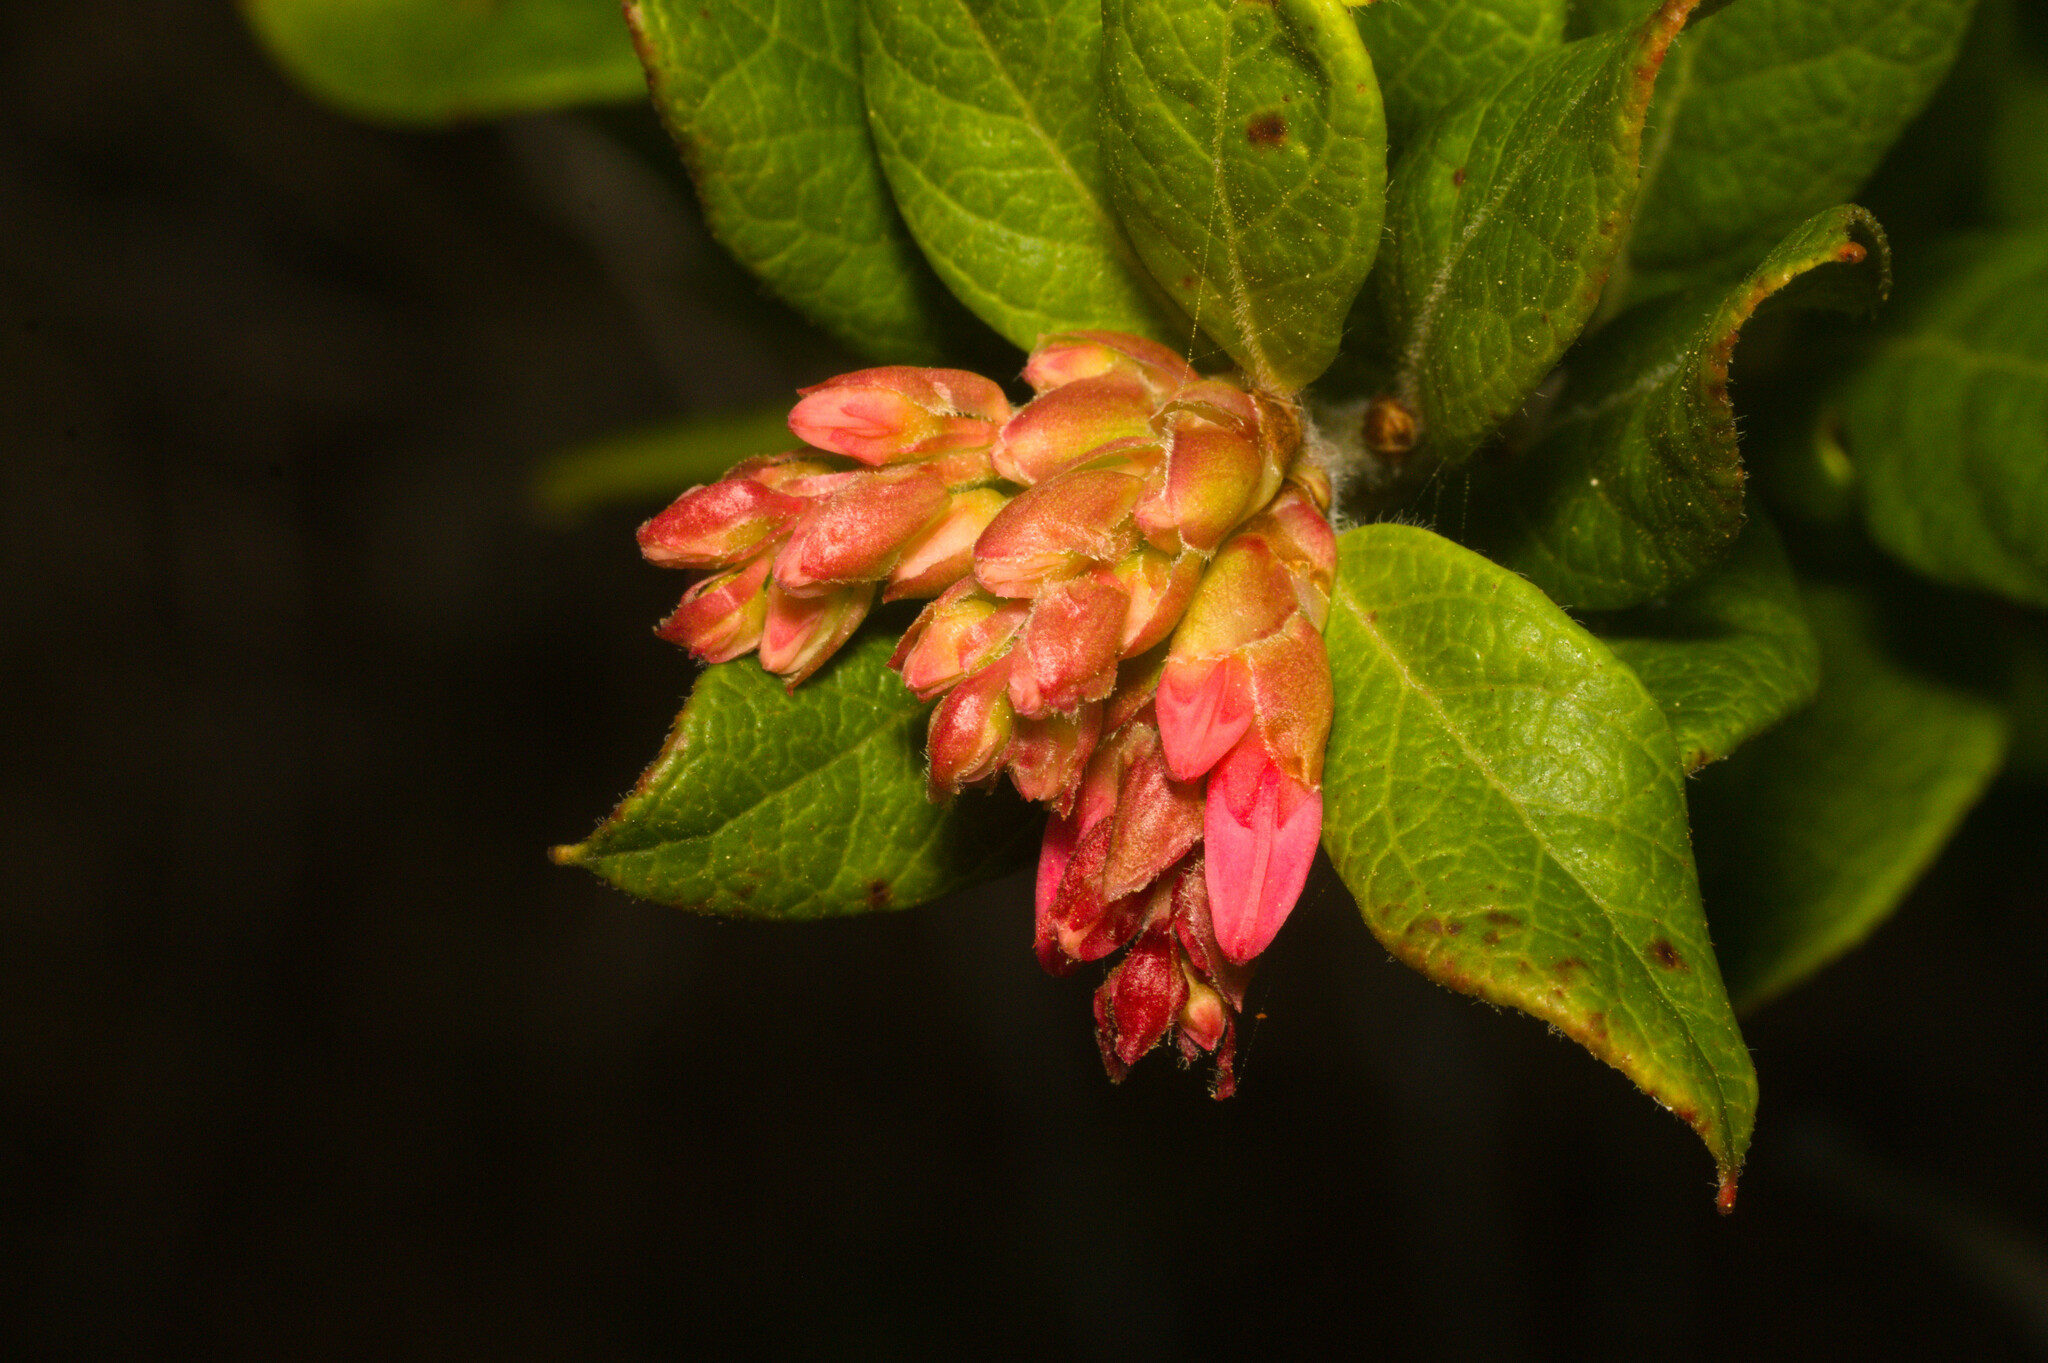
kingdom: Plantae
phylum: Tracheophyta
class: Magnoliopsida
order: Ericales
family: Ericaceae
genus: Gaylussacia
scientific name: Gaylussacia brasiliensis
